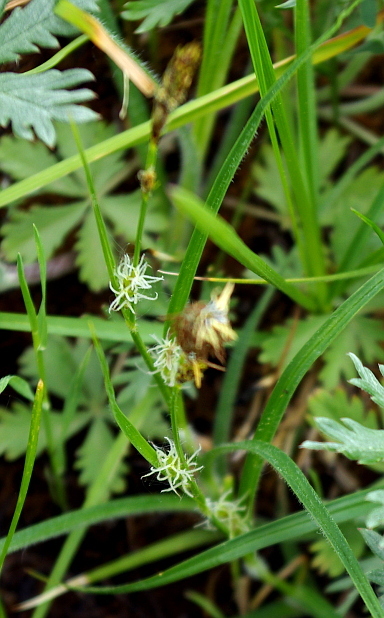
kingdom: Plantae
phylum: Tracheophyta
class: Liliopsida
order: Poales
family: Cyperaceae
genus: Carex
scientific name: Carex hirta
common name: Hairy sedge
